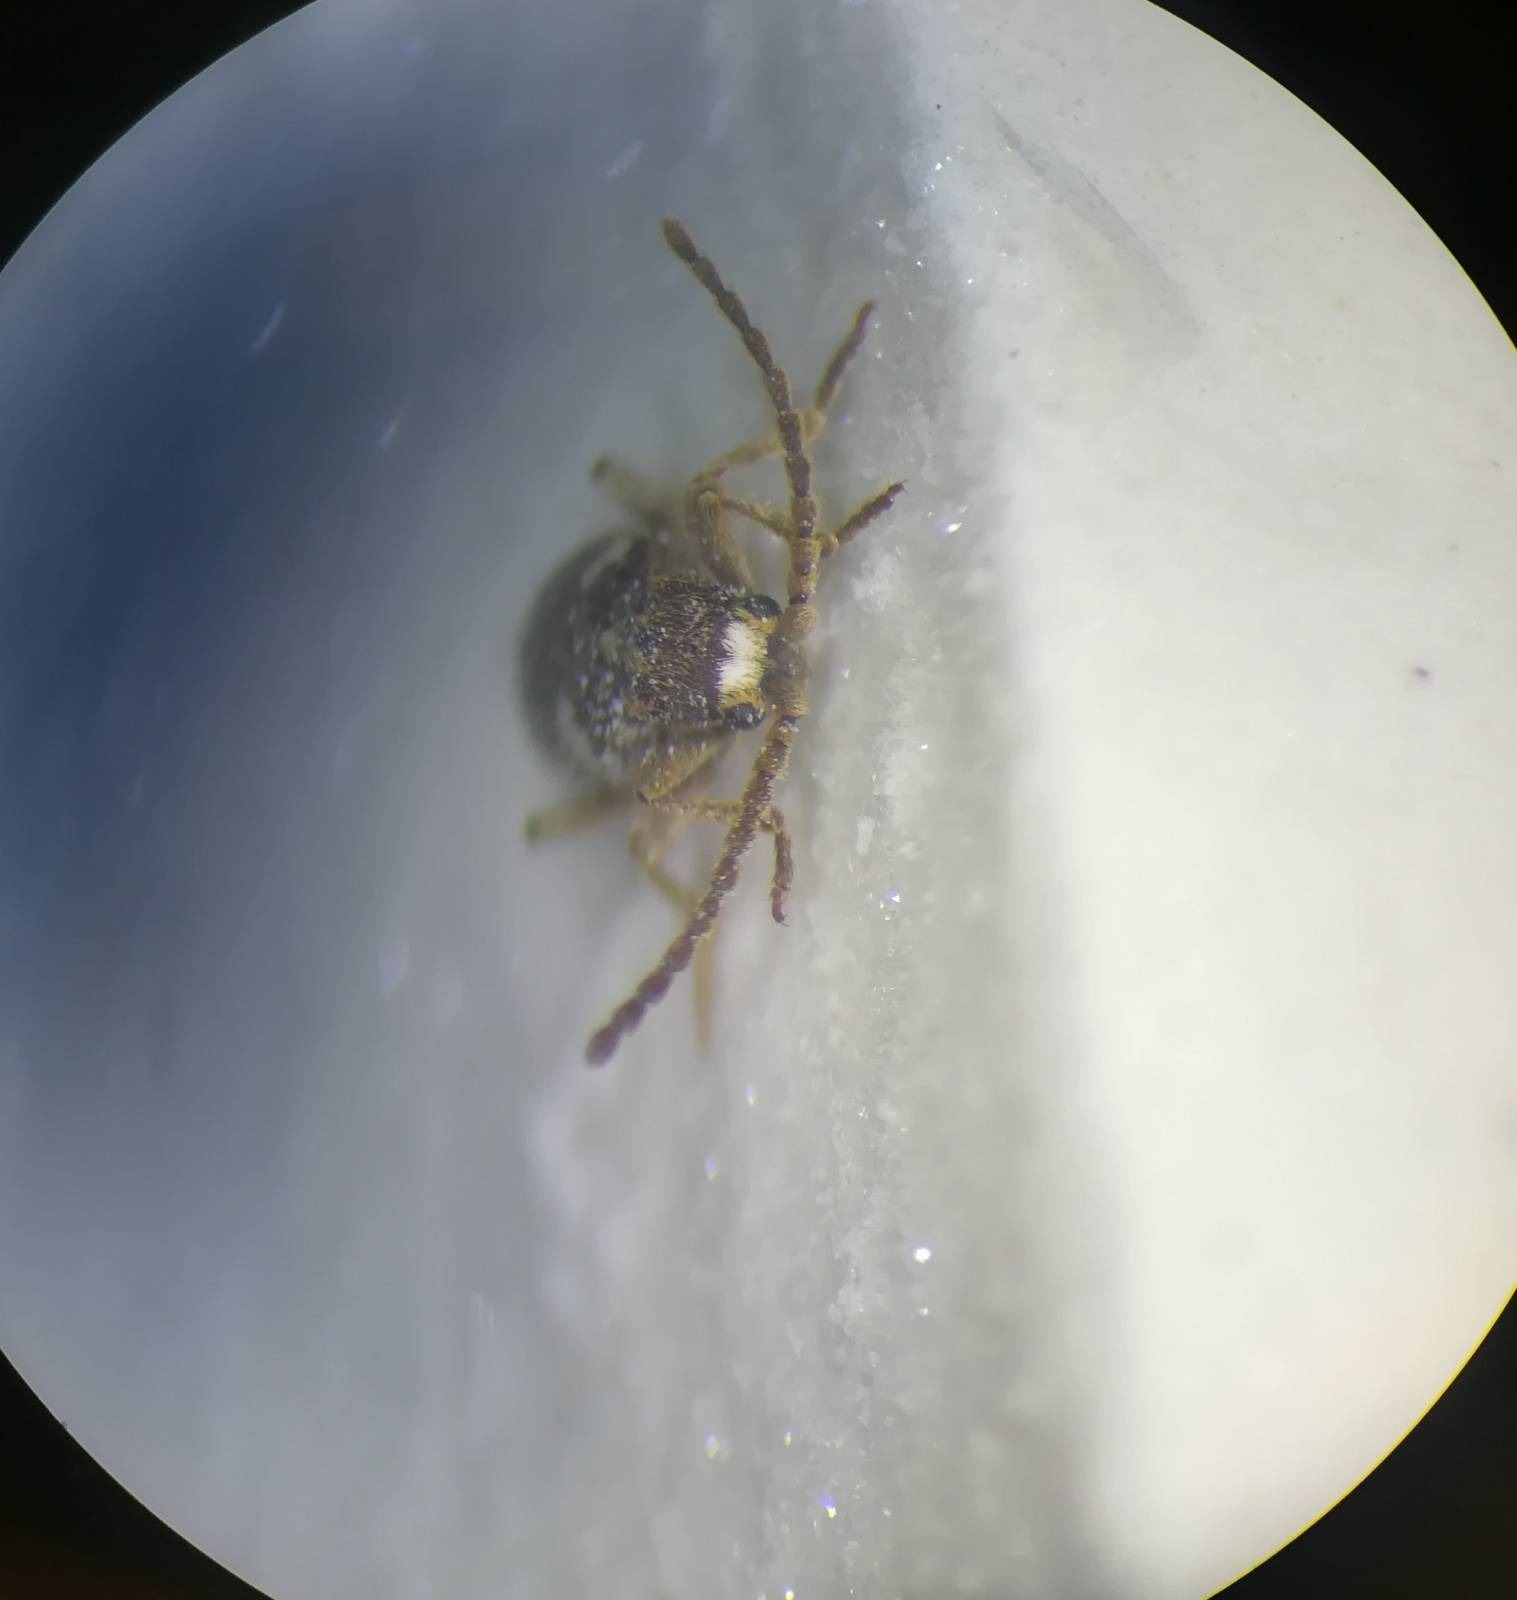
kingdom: Animalia
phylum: Arthropoda
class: Insecta
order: Coleoptera
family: Ptinidae
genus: Ptinus
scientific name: Ptinus sexpunctatus
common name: Six-spotted spider beetle
